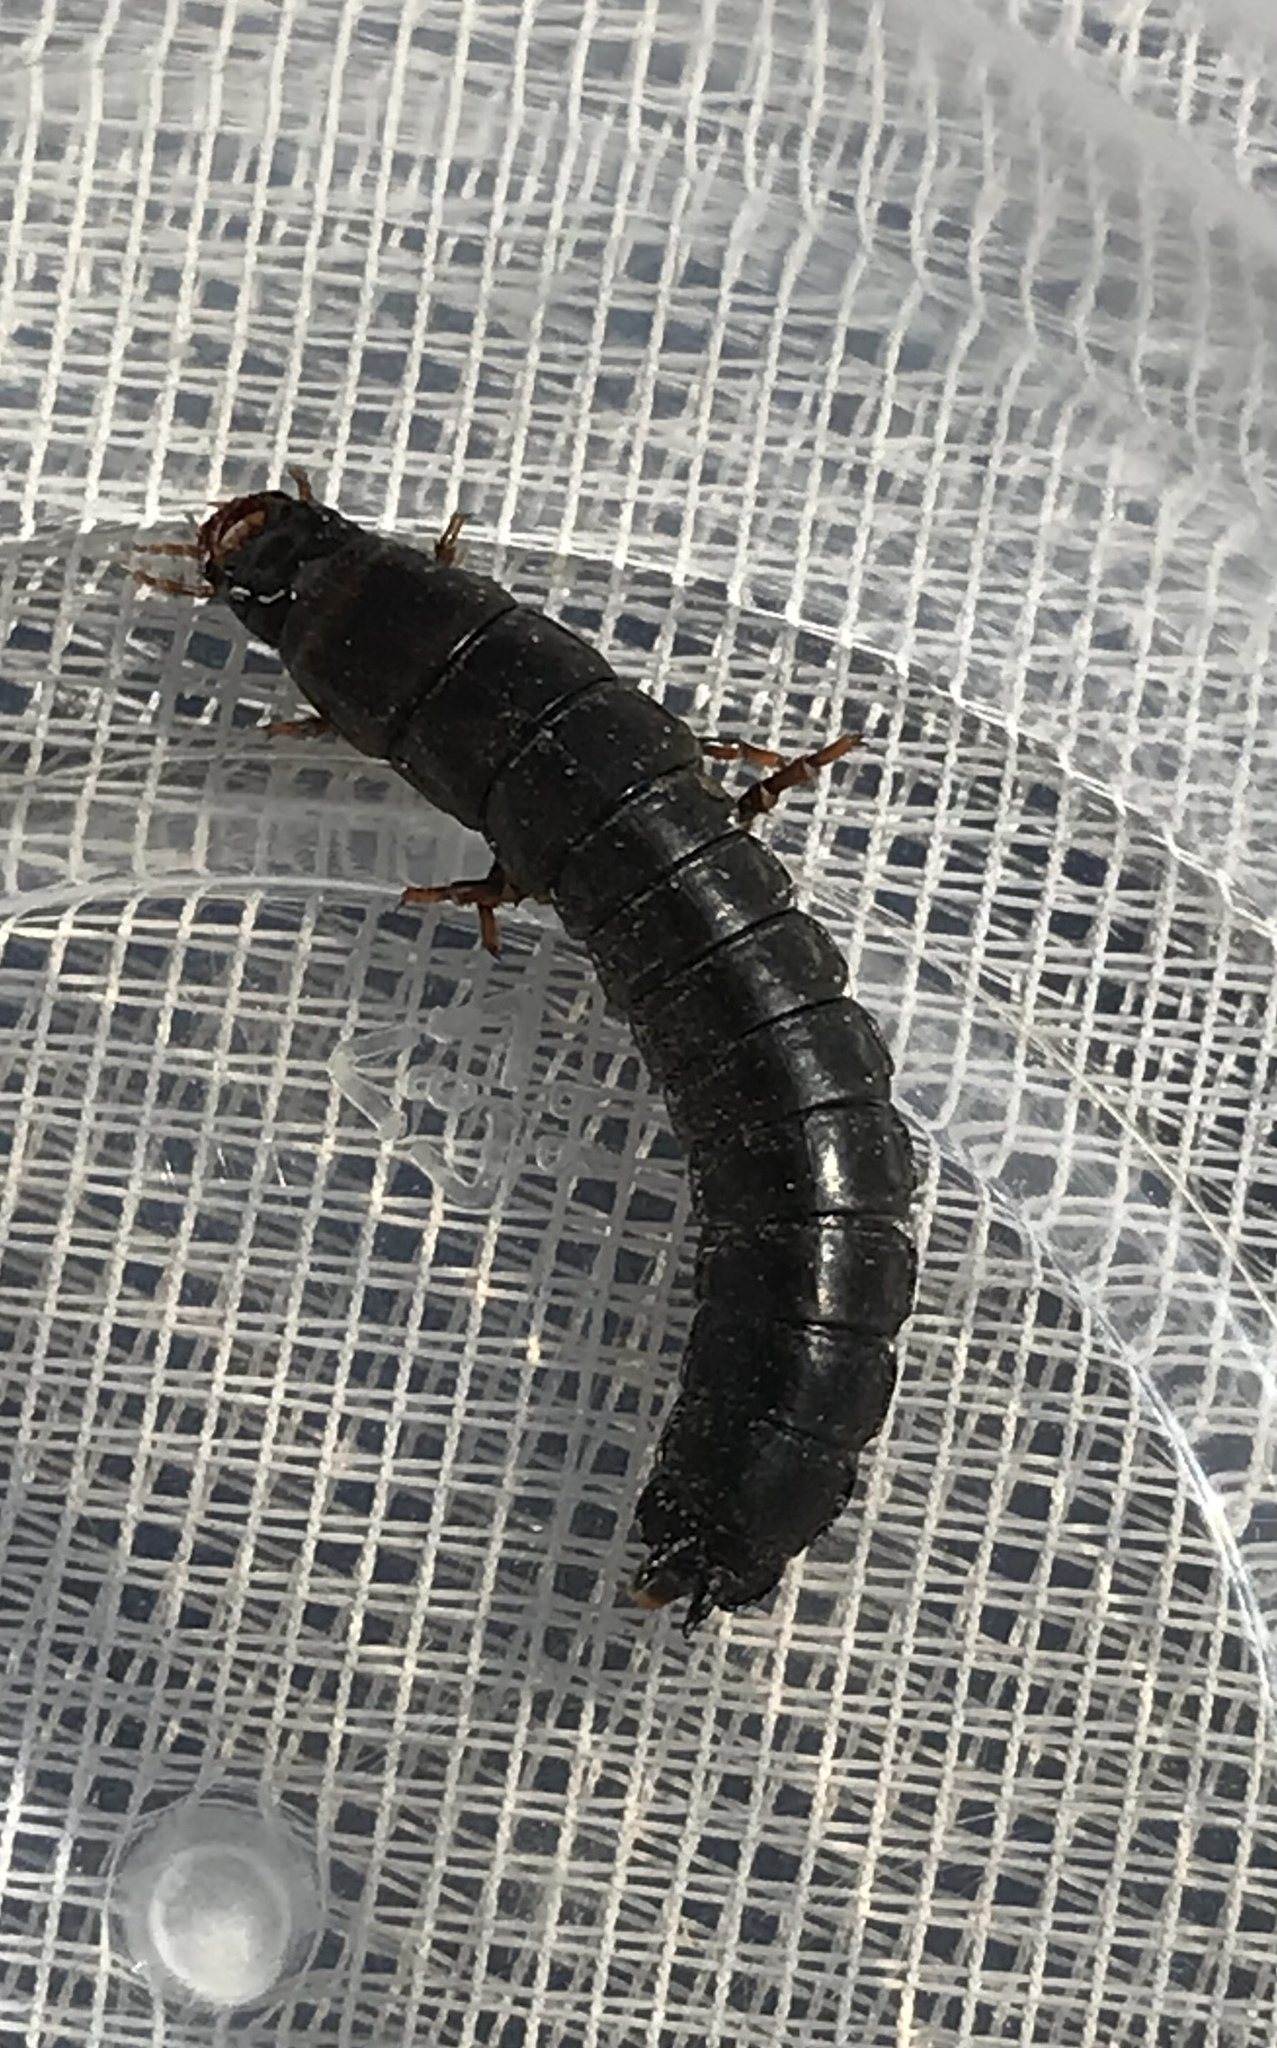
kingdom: Animalia
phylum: Arthropoda
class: Insecta
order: Coleoptera
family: Carabidae
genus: Carabus
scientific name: Carabus
